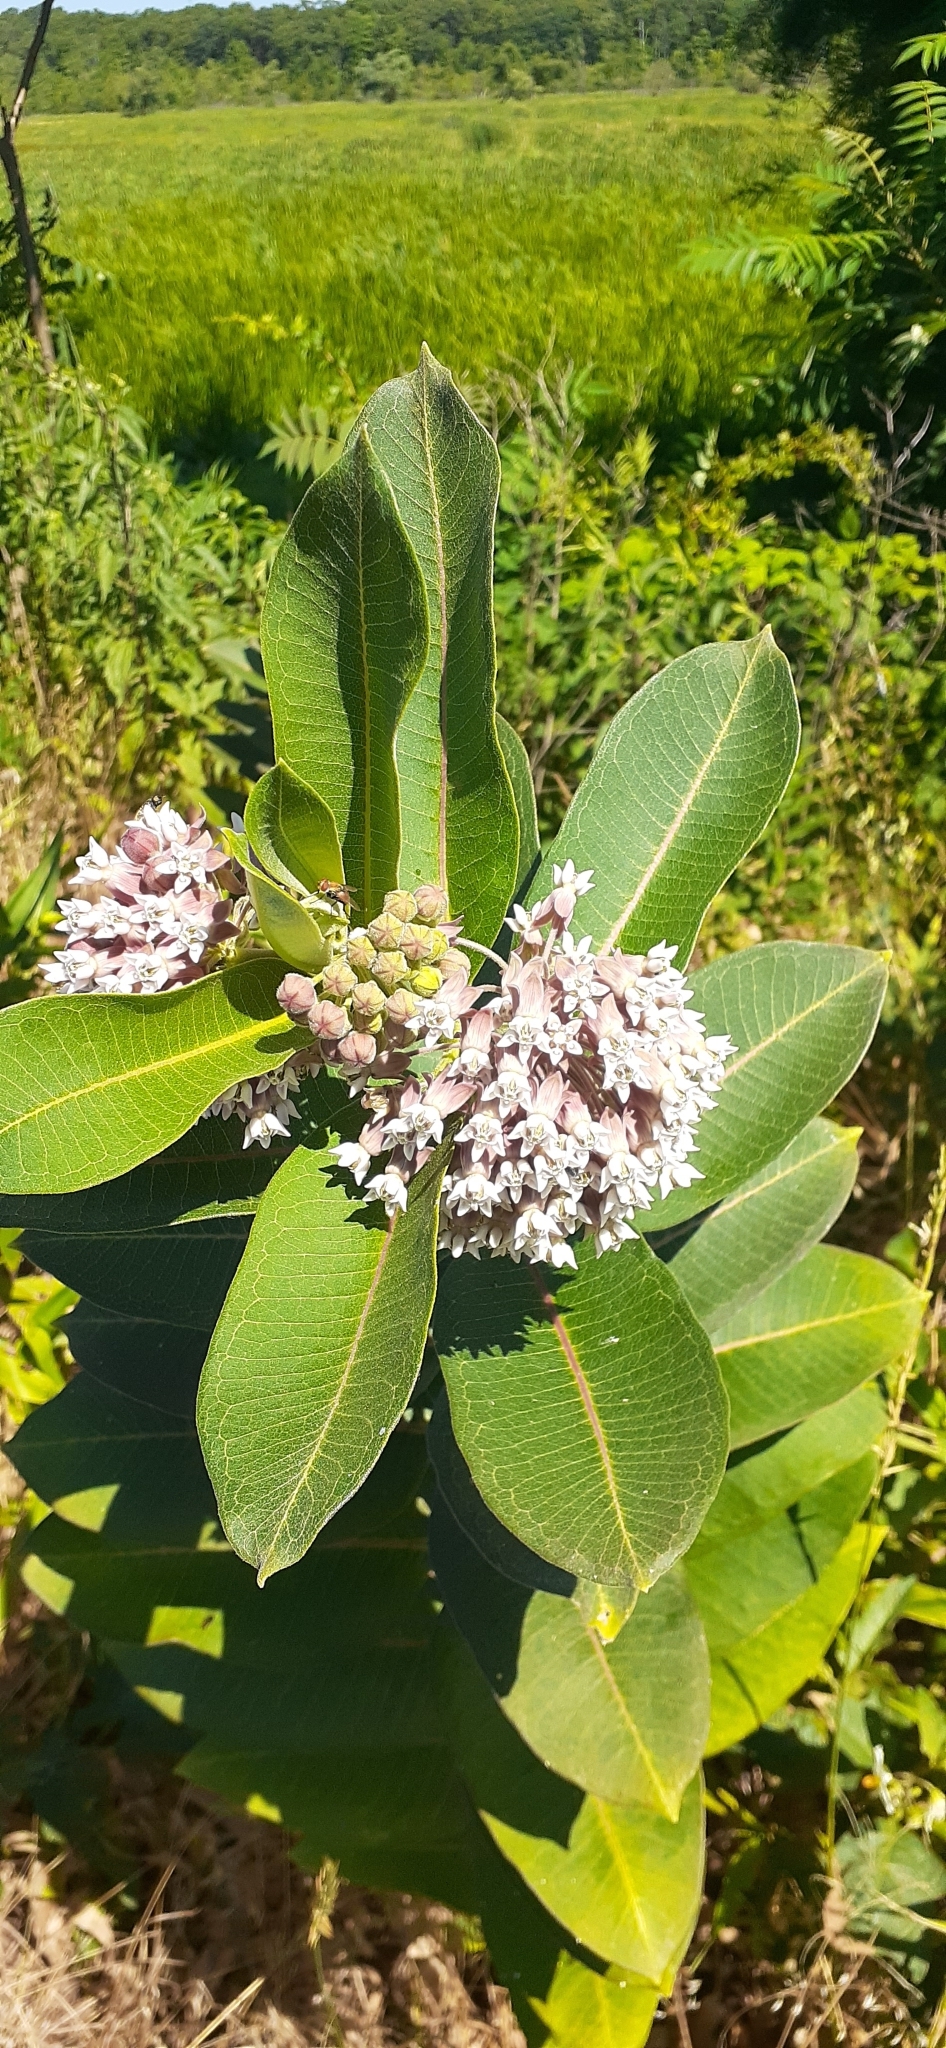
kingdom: Plantae
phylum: Tracheophyta
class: Magnoliopsida
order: Gentianales
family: Apocynaceae
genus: Asclepias
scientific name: Asclepias syriaca
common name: Common milkweed
